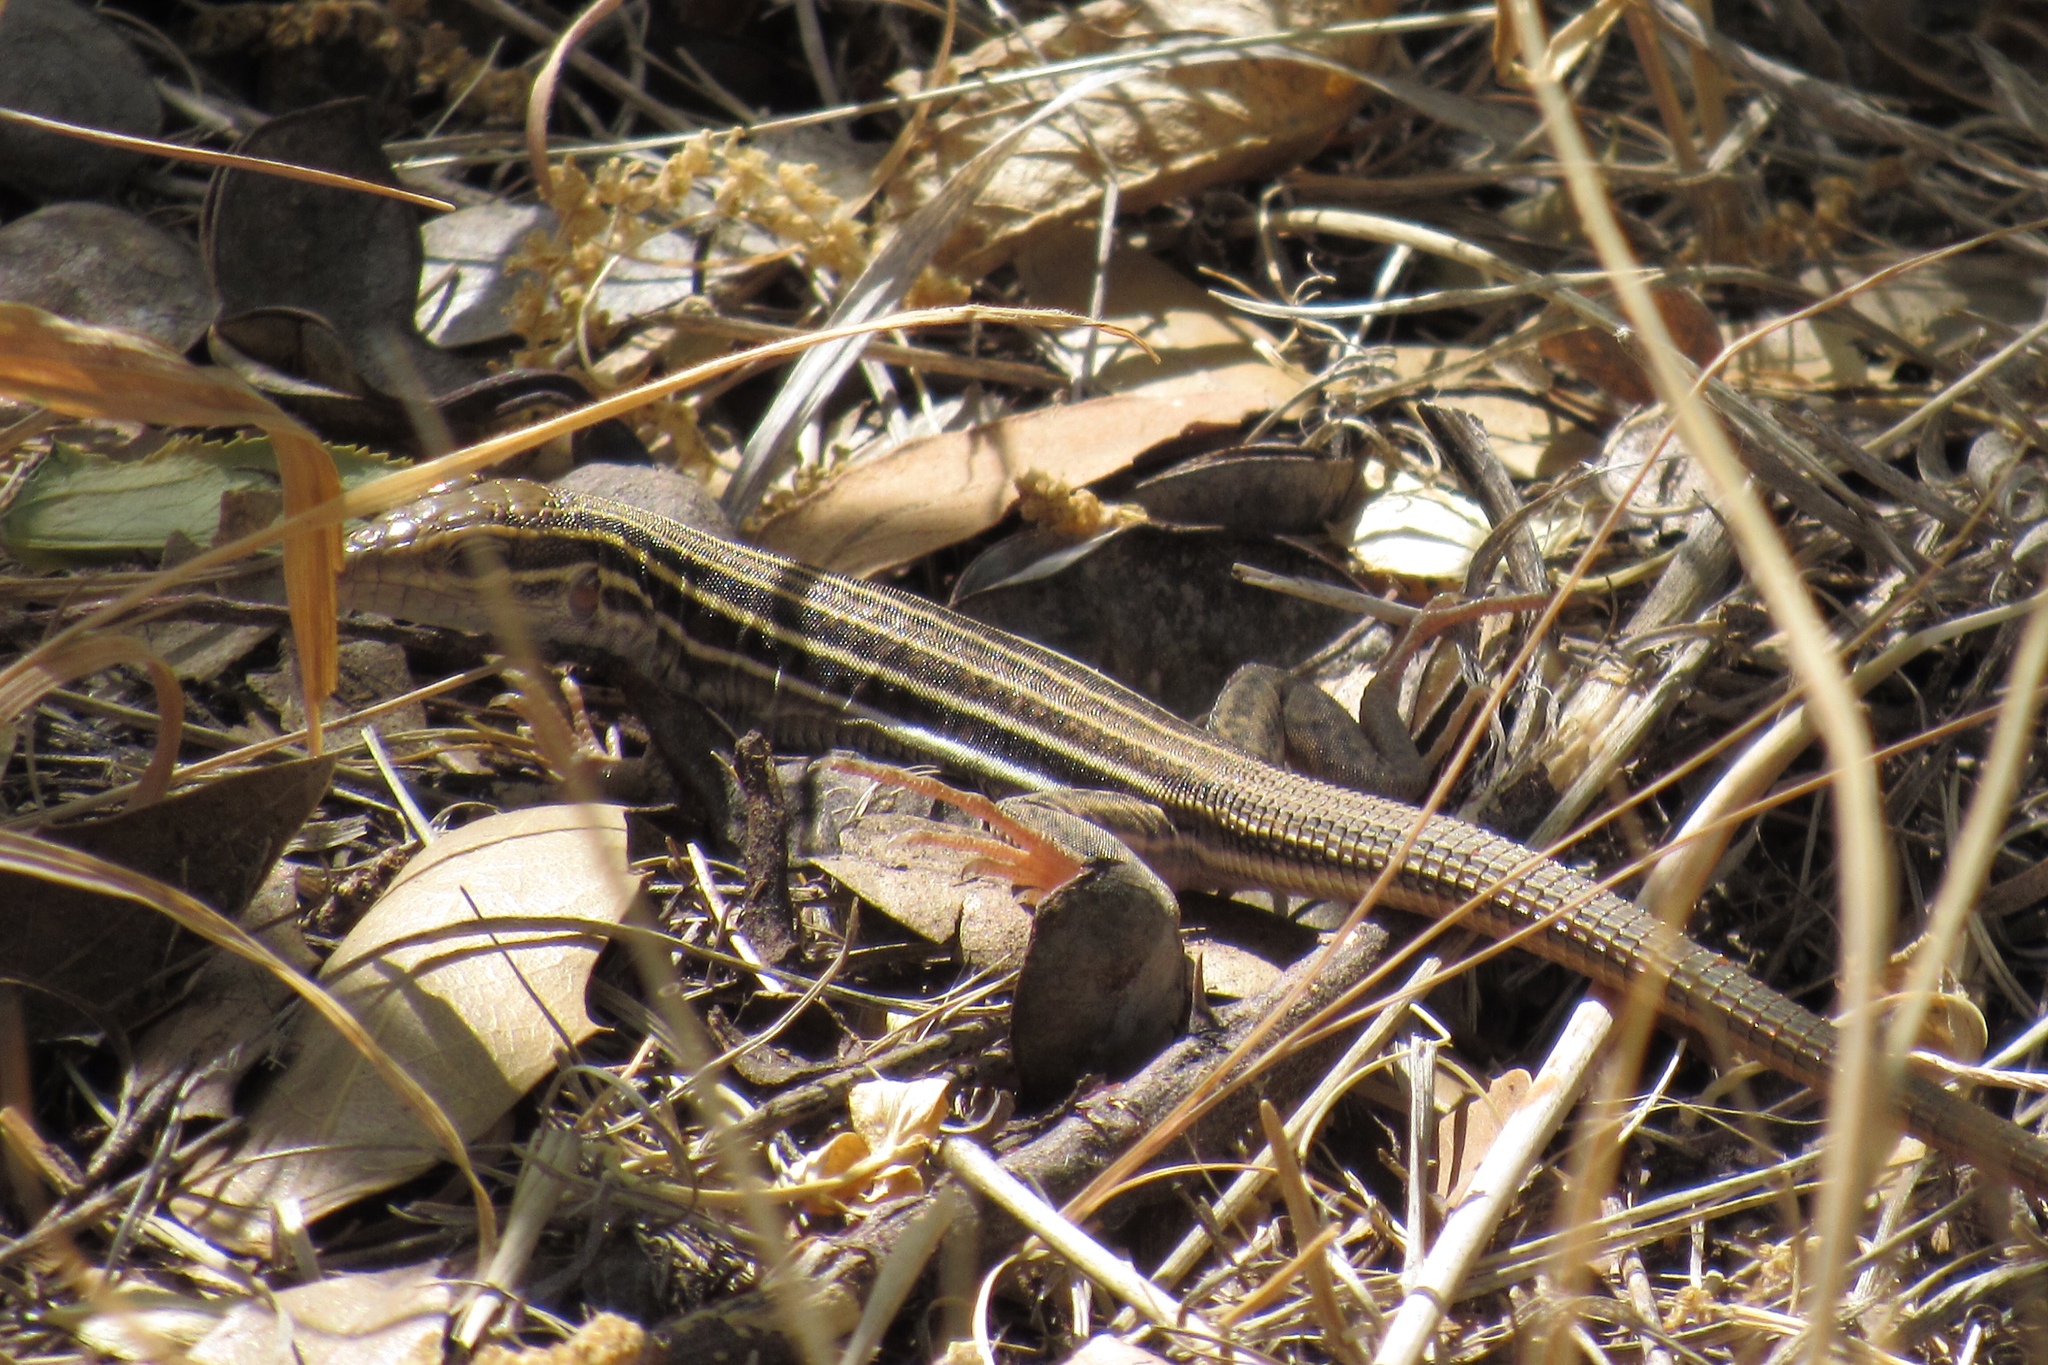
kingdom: Animalia
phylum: Chordata
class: Squamata
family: Teiidae
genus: Aspidoscelis
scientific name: Aspidoscelis stictogrammus
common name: Giant spotted whiptail
